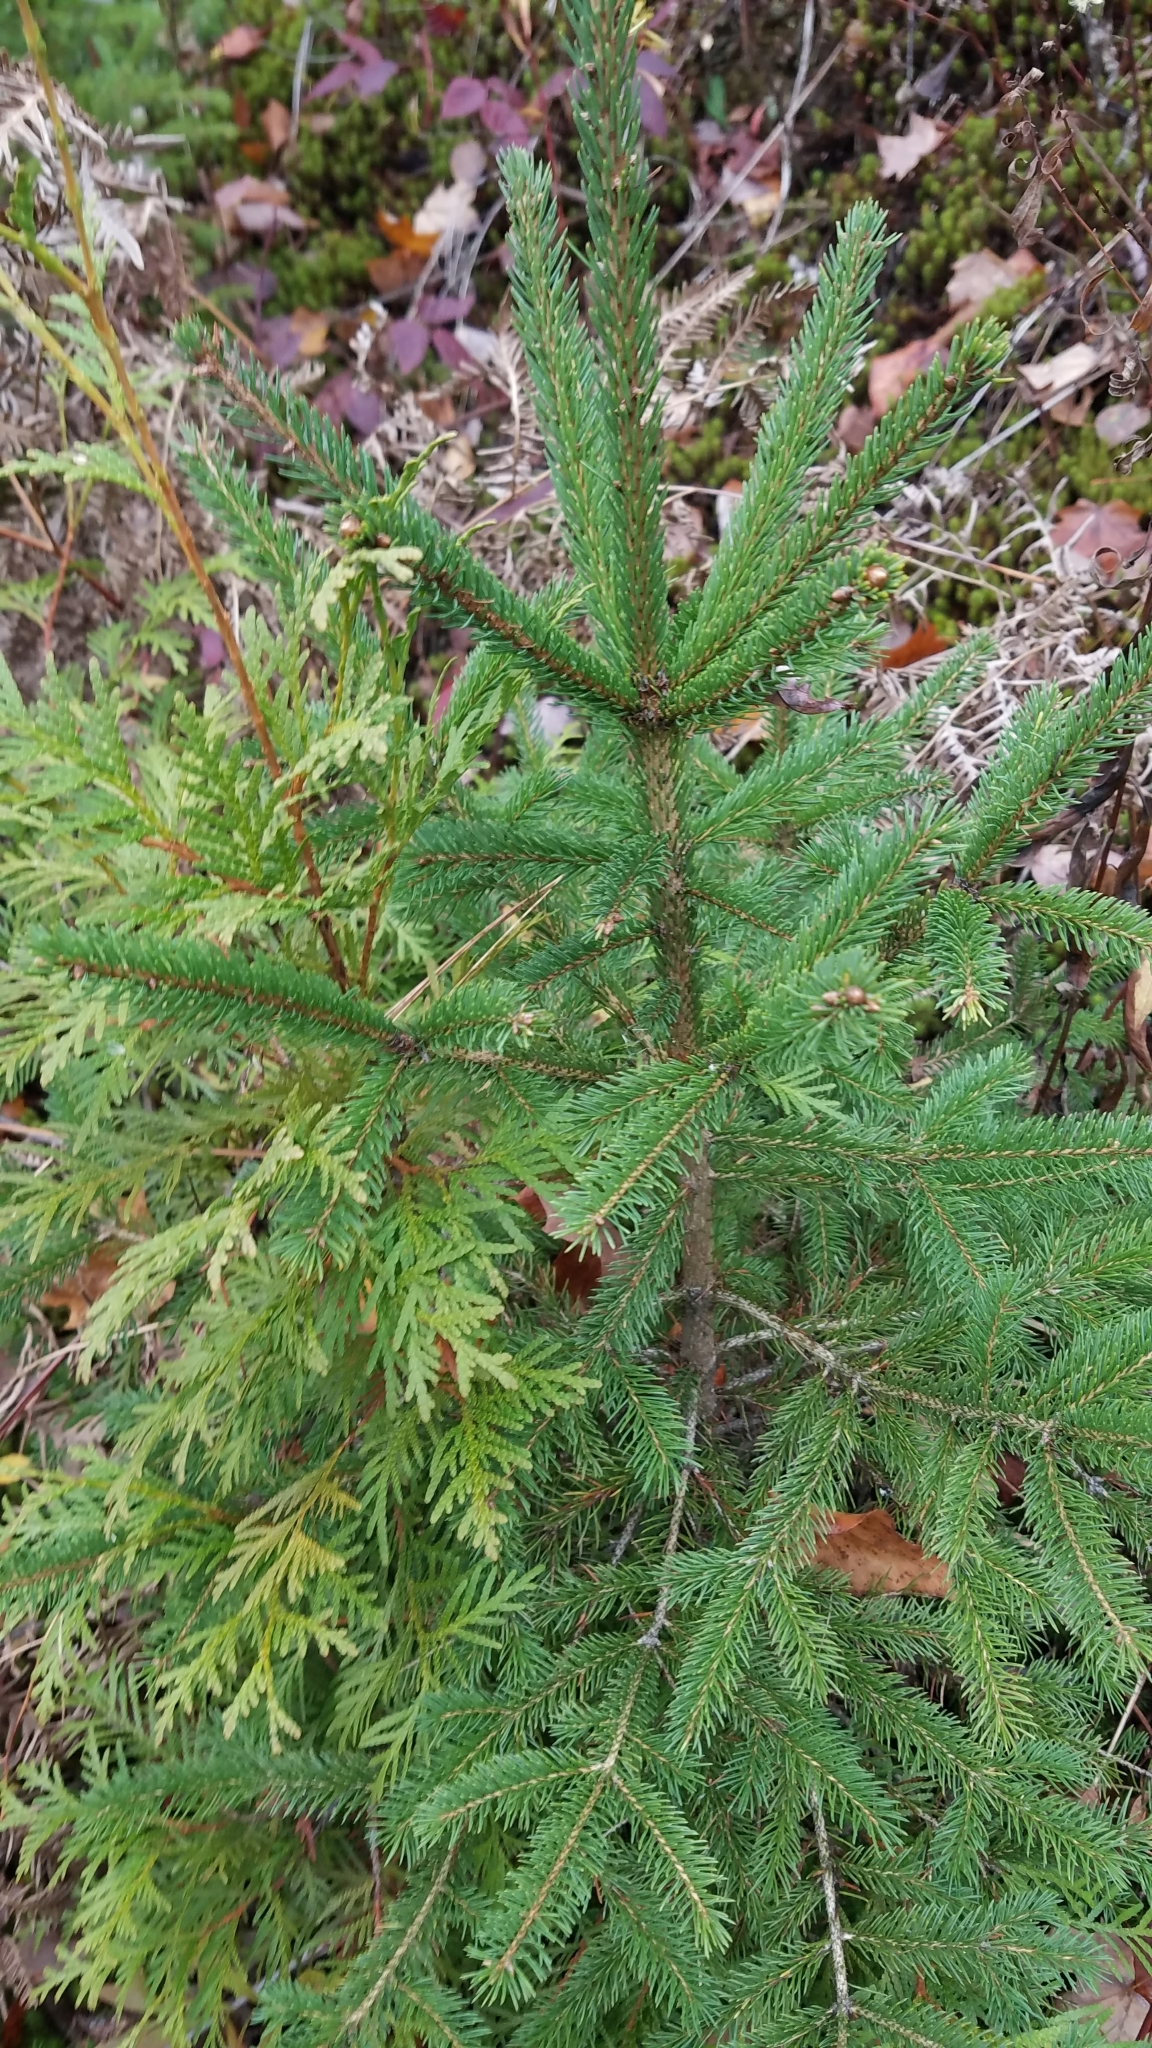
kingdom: Plantae
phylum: Tracheophyta
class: Pinopsida
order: Pinales
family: Pinaceae
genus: Picea
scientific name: Picea glauca
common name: White spruce
